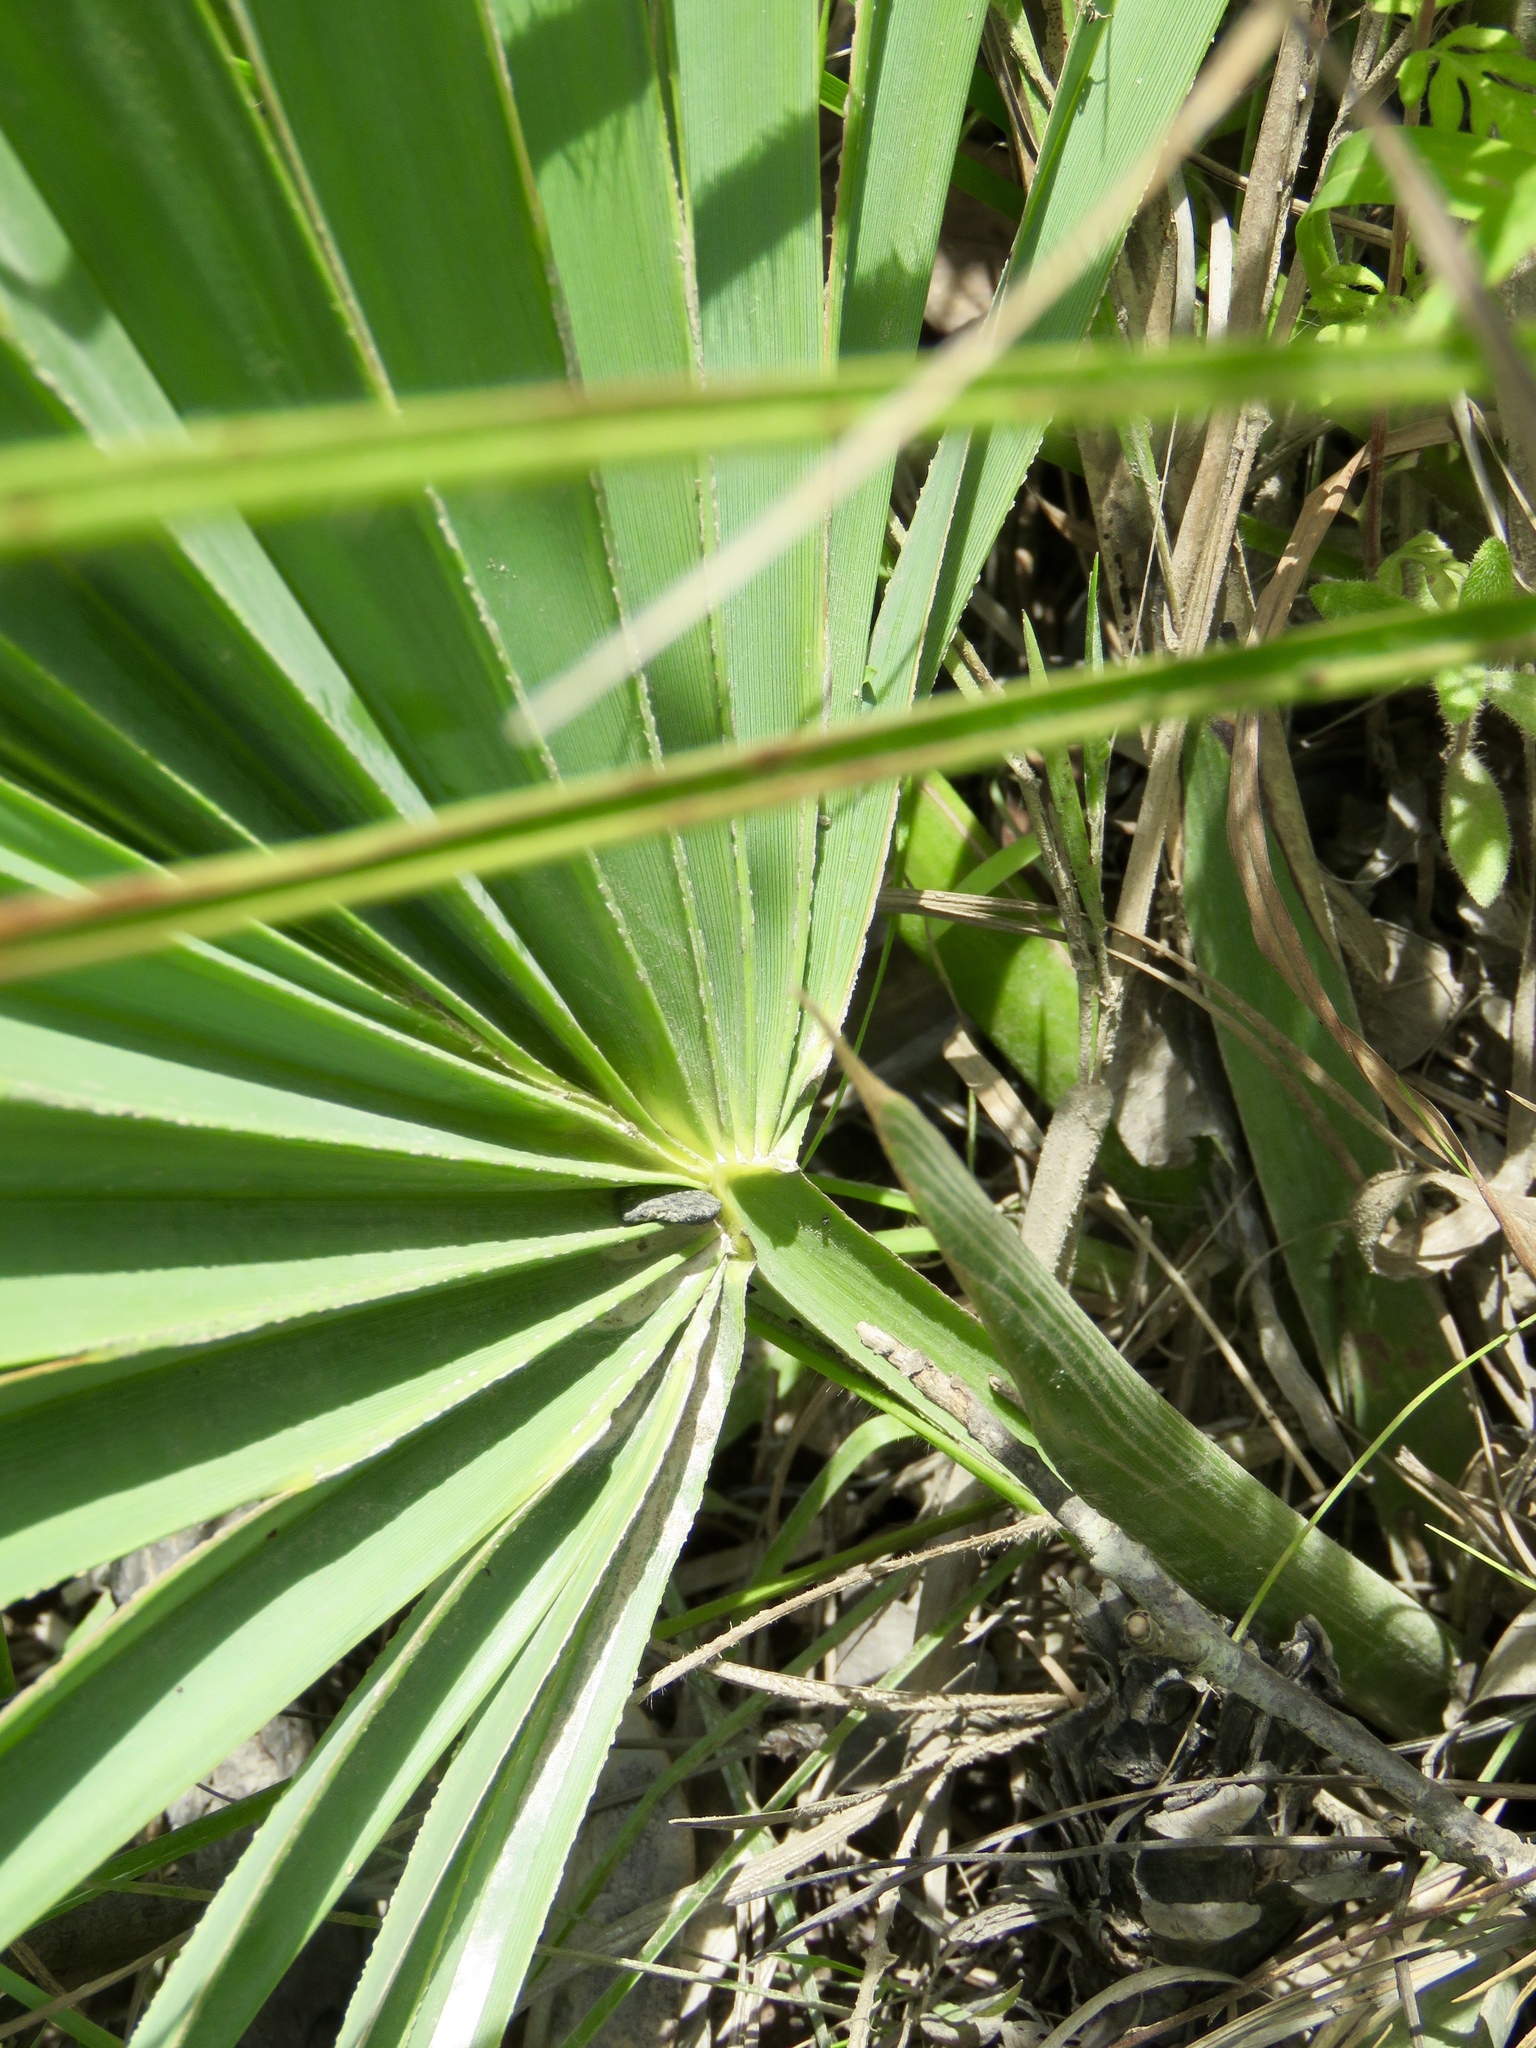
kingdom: Plantae
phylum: Tracheophyta
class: Liliopsida
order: Arecales
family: Arecaceae
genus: Sabal
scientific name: Sabal minor
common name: Dwarf palmetto
